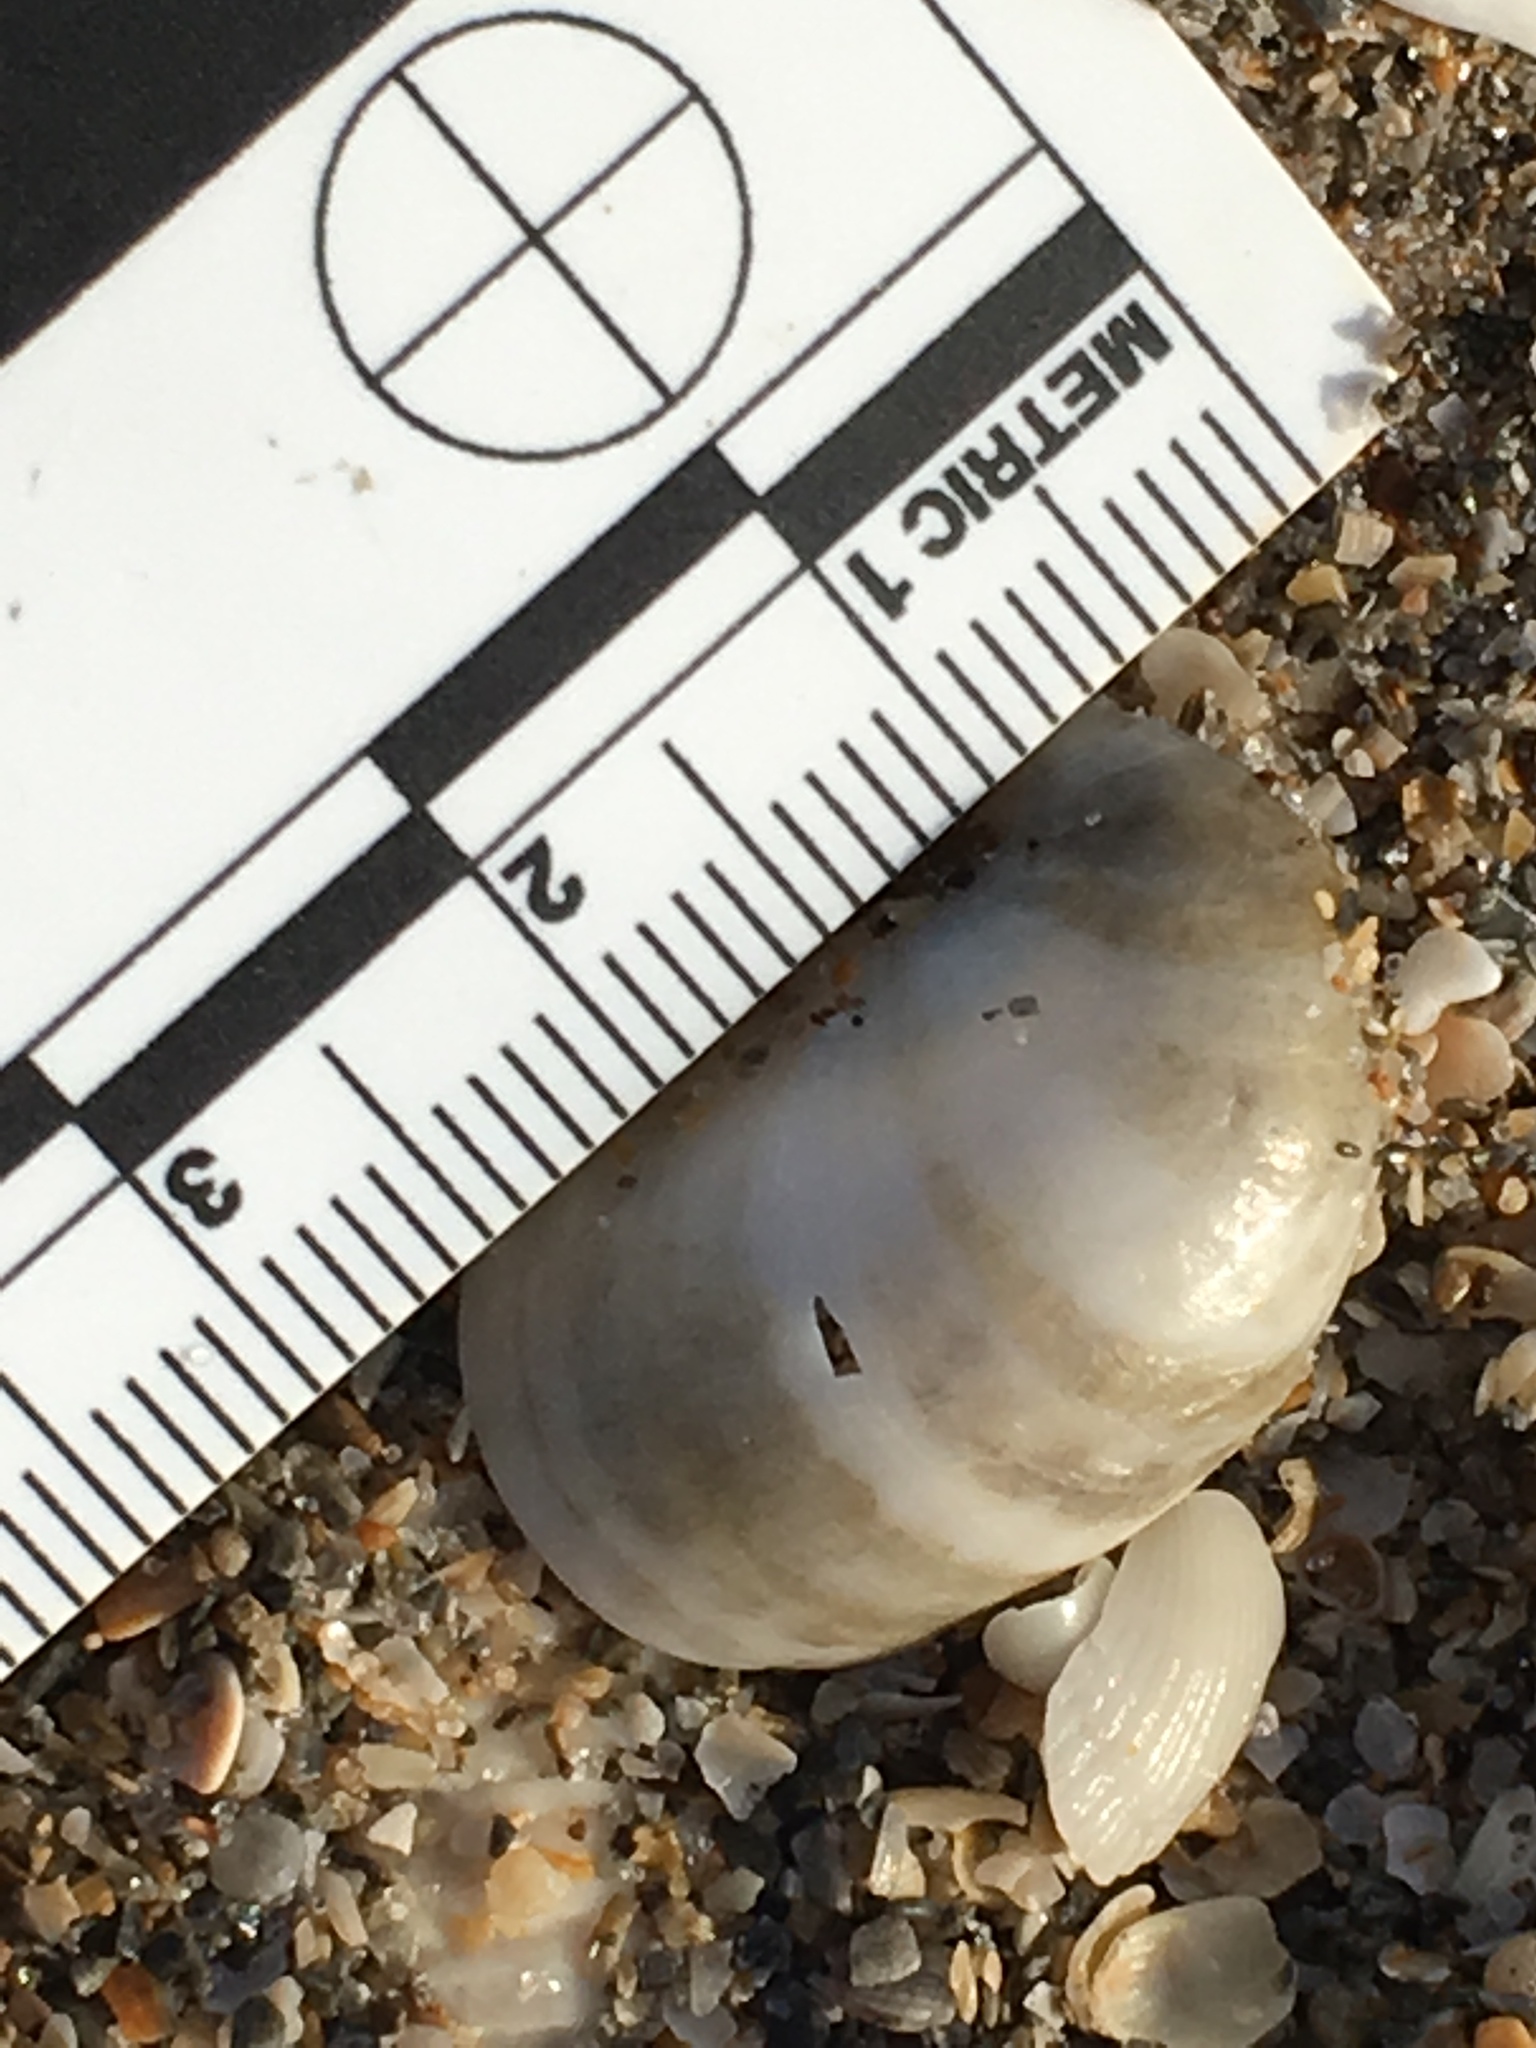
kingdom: Animalia
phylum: Mollusca
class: Gastropoda
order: Littorinimorpha
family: Calyptraeidae
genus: Crepidula
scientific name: Crepidula fornicata
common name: Slipper limpet
